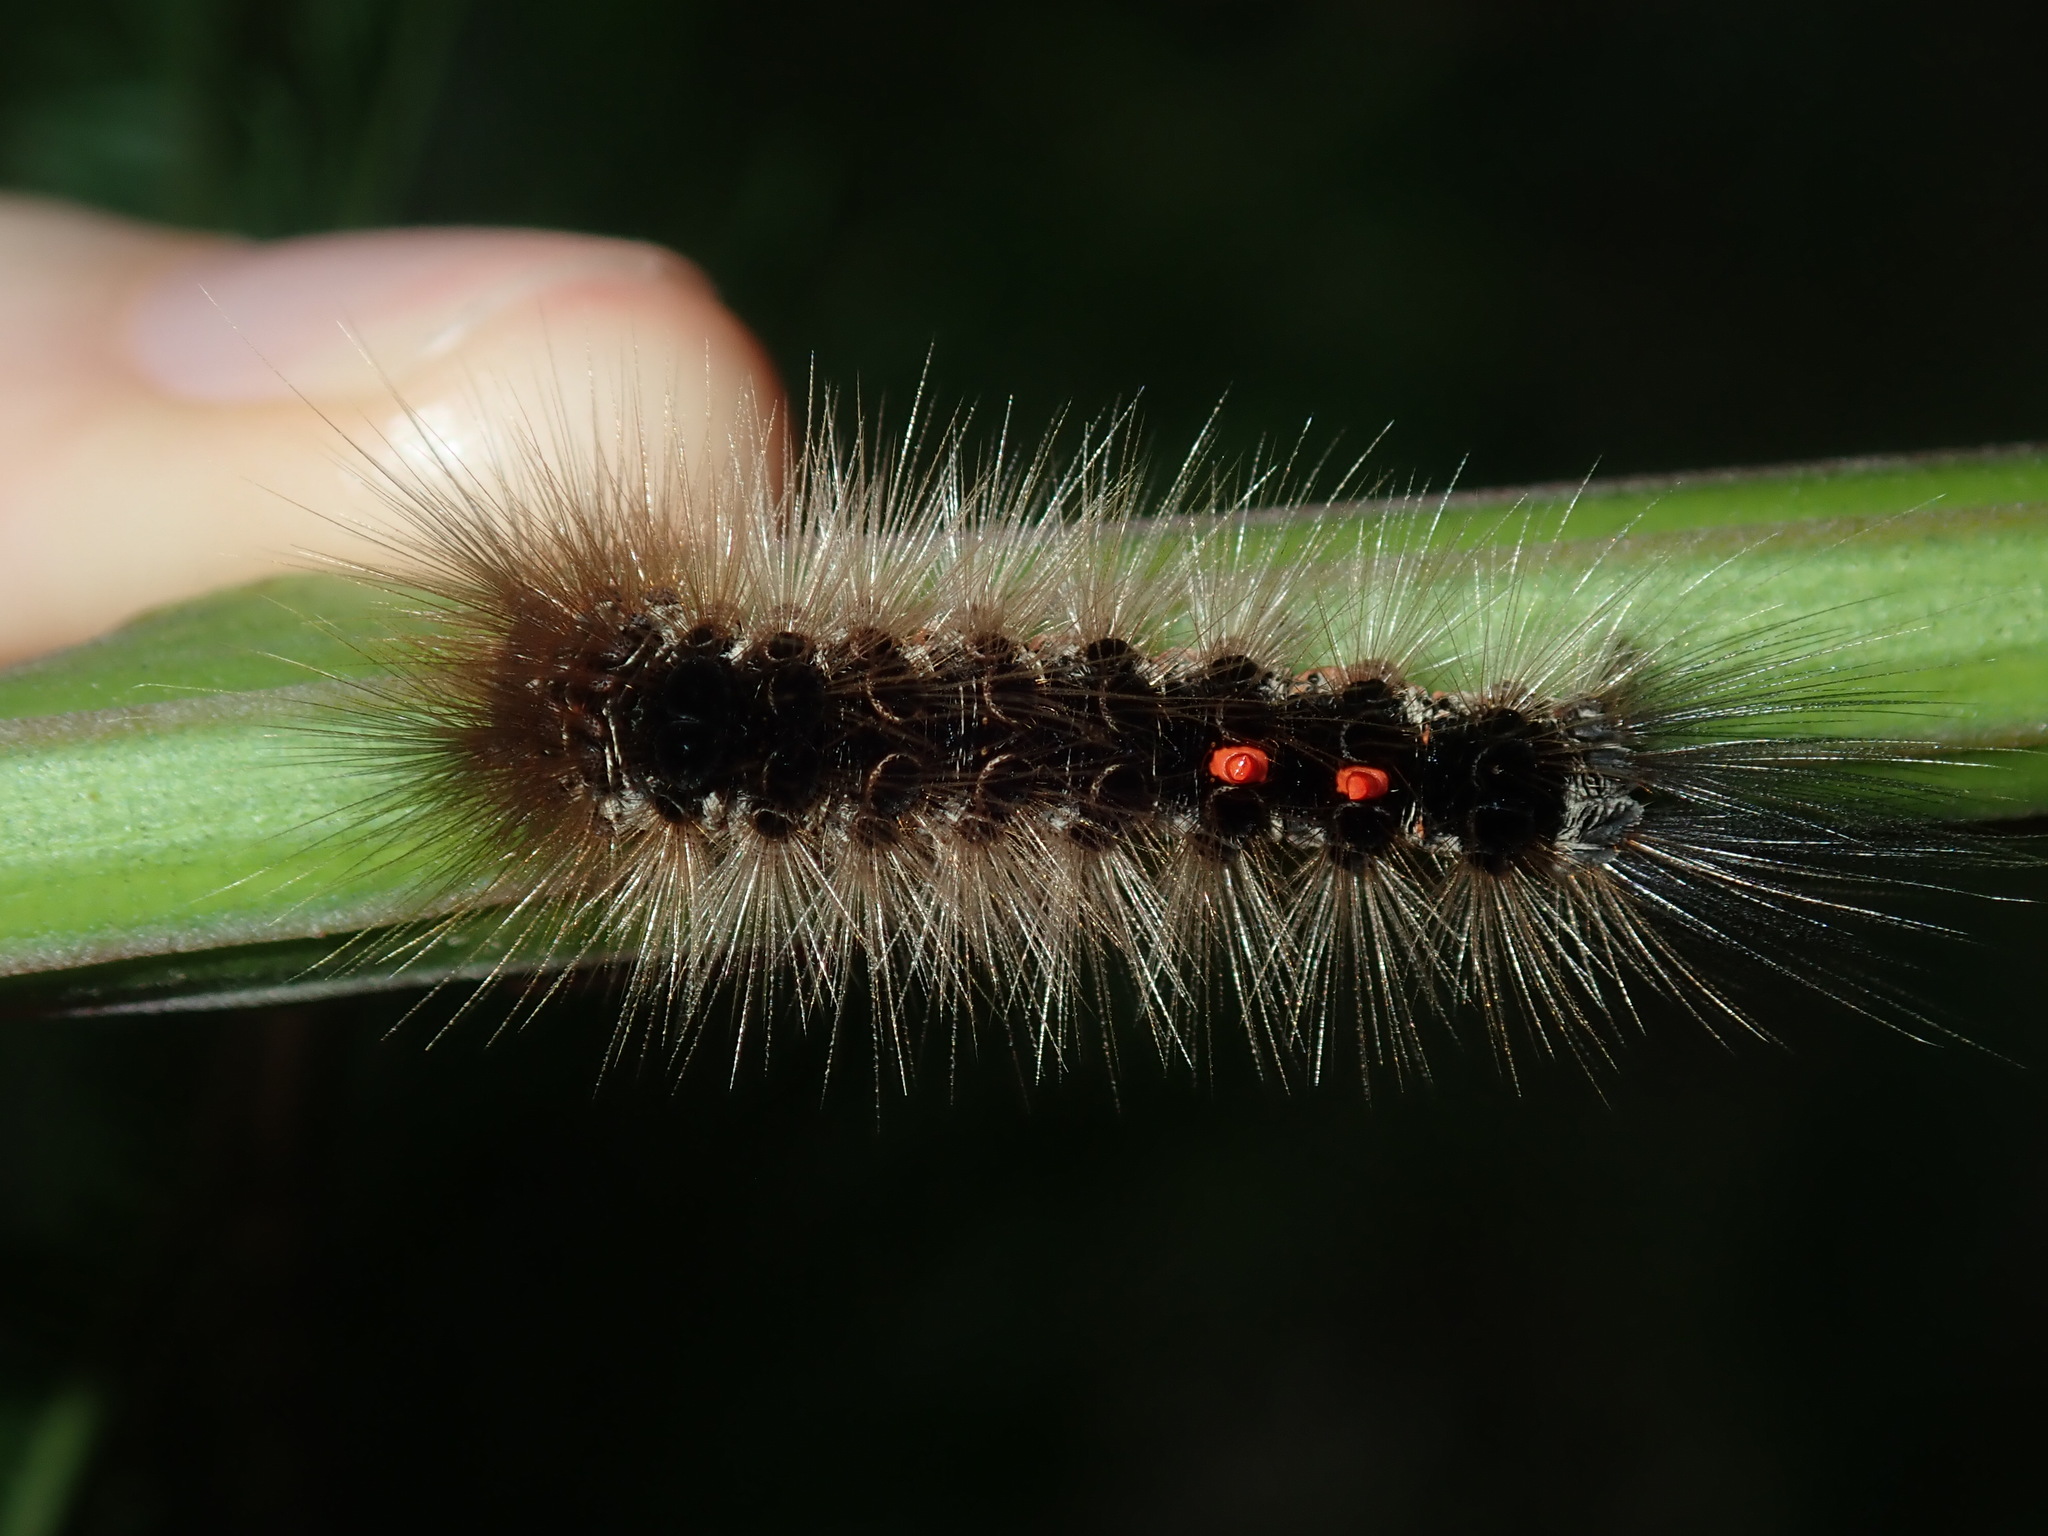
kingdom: Animalia
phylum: Arthropoda
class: Insecta
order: Lepidoptera
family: Erebidae
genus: Euproctis
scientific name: Euproctis melanosoma
